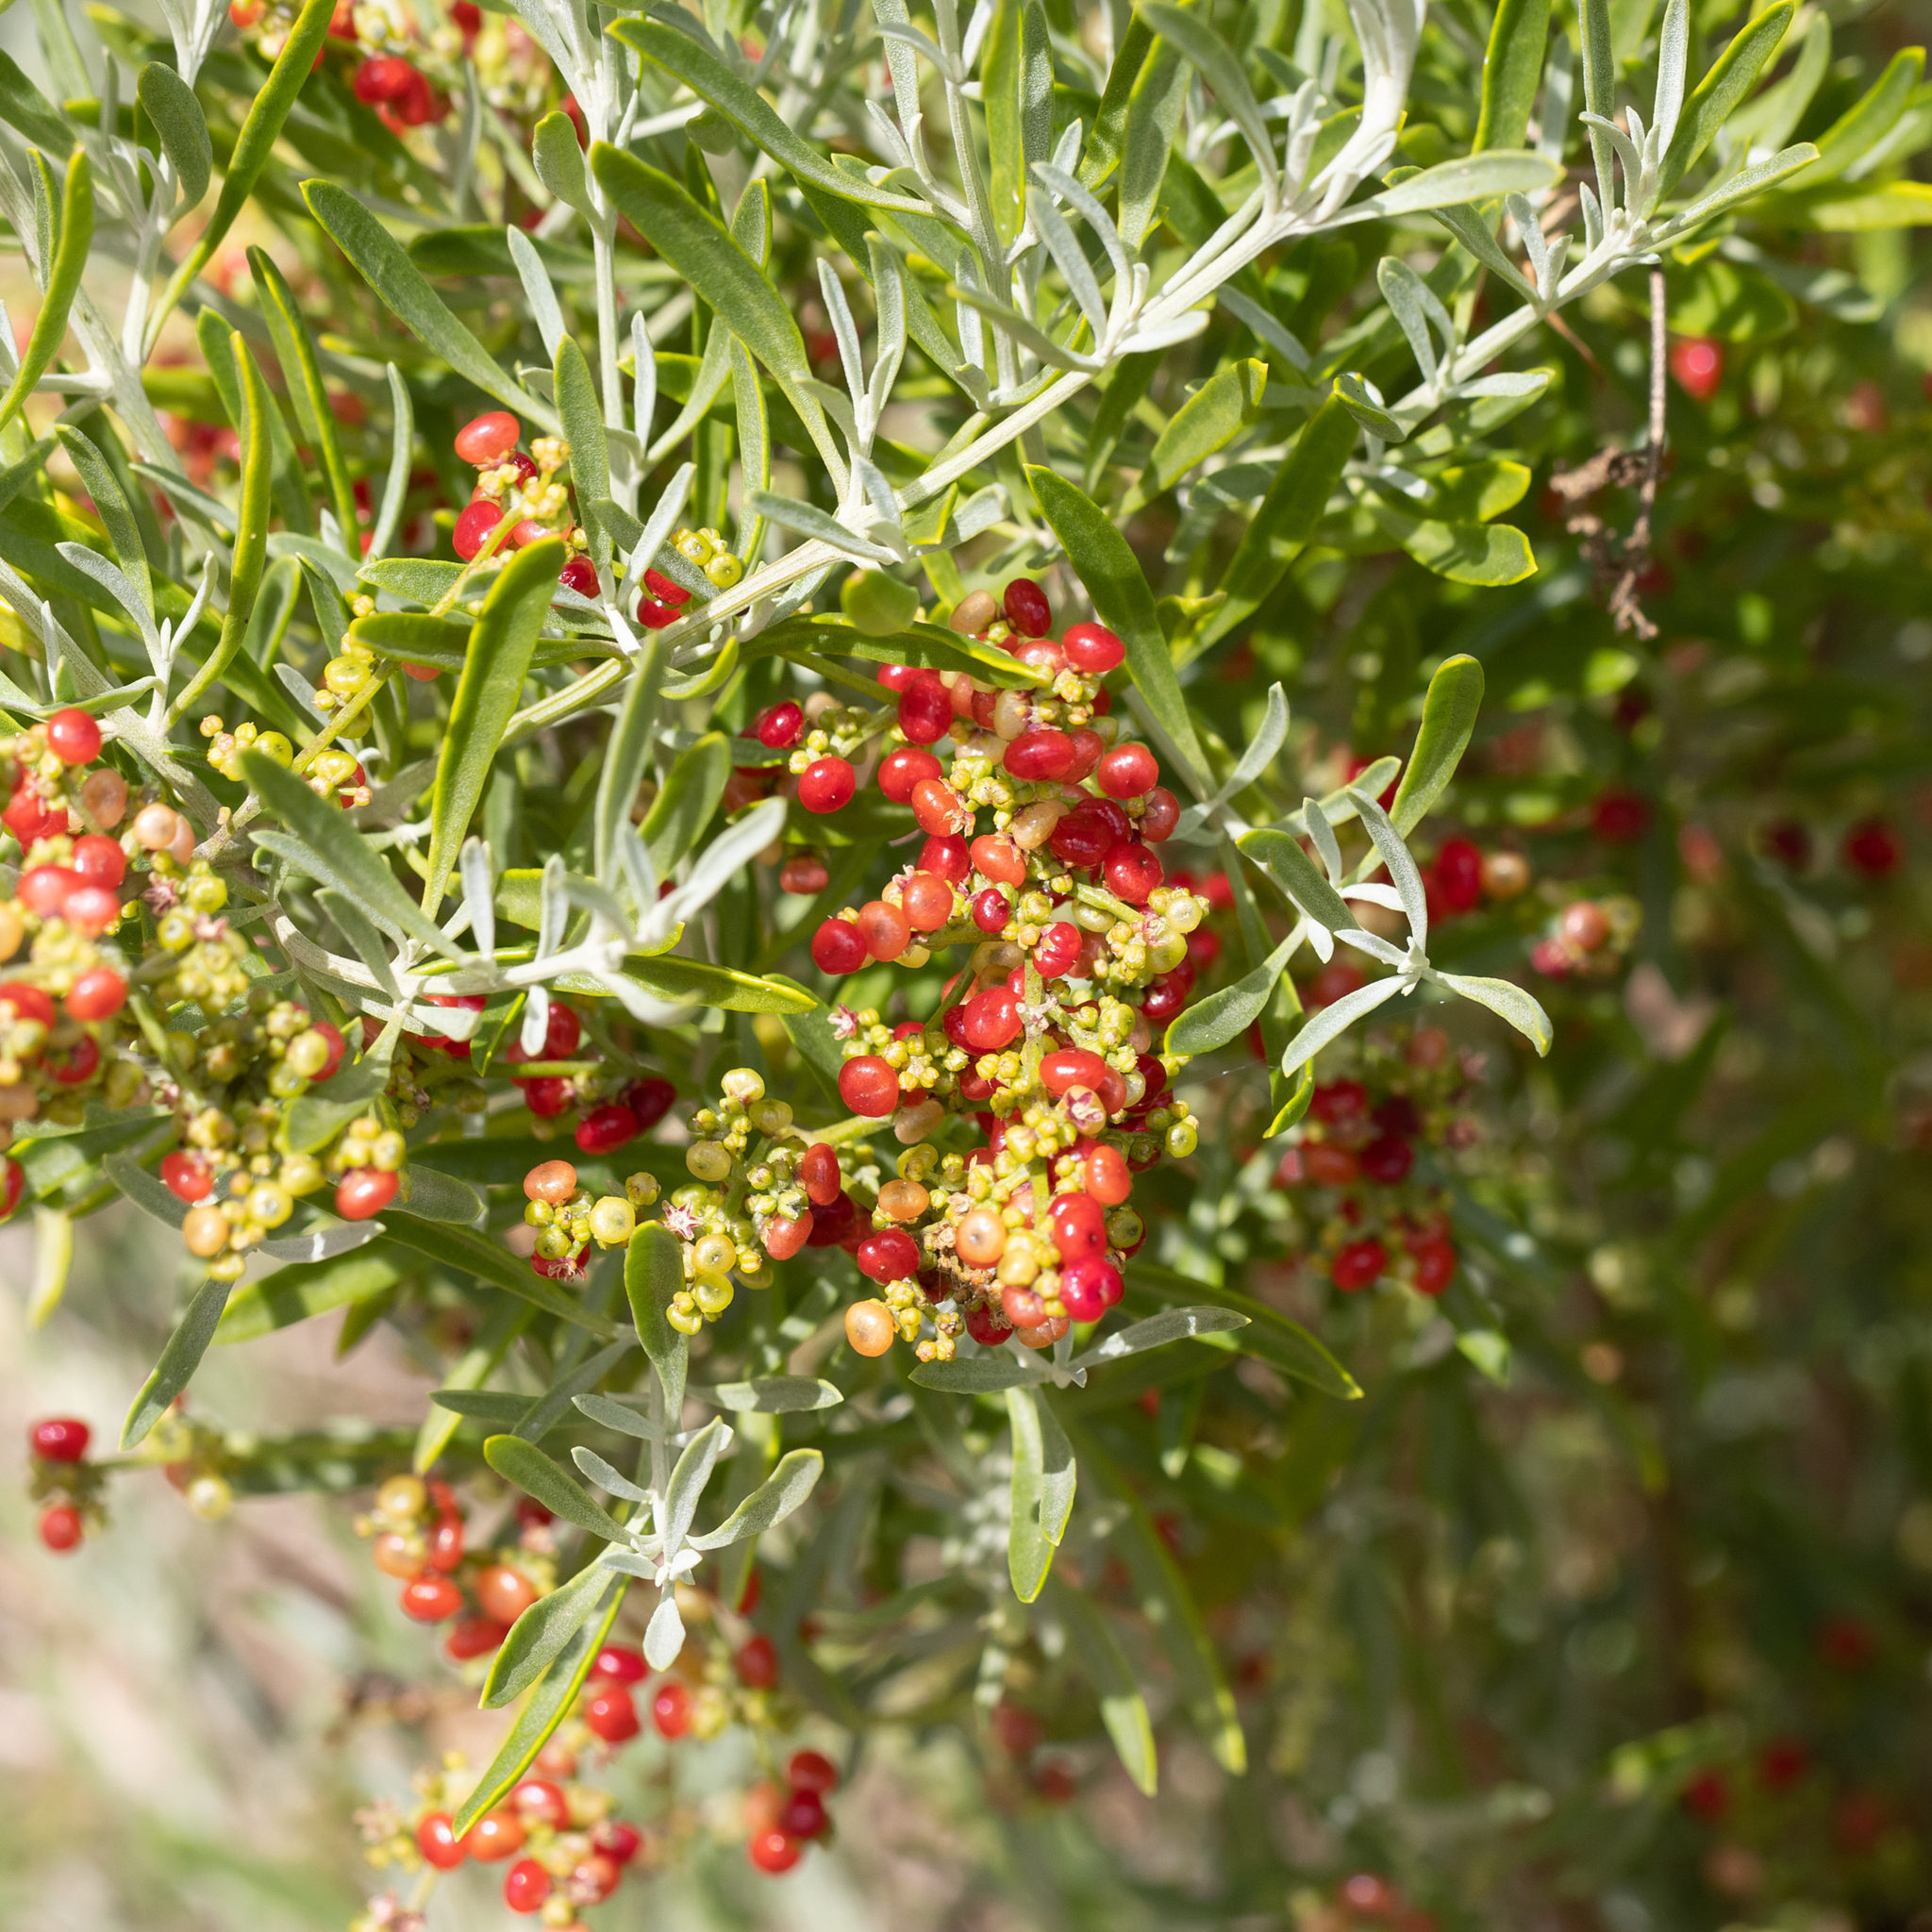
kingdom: Plantae
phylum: Tracheophyta
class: Magnoliopsida
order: Caryophyllales
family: Amaranthaceae
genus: Chenopodium
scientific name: Chenopodium wilsonii
